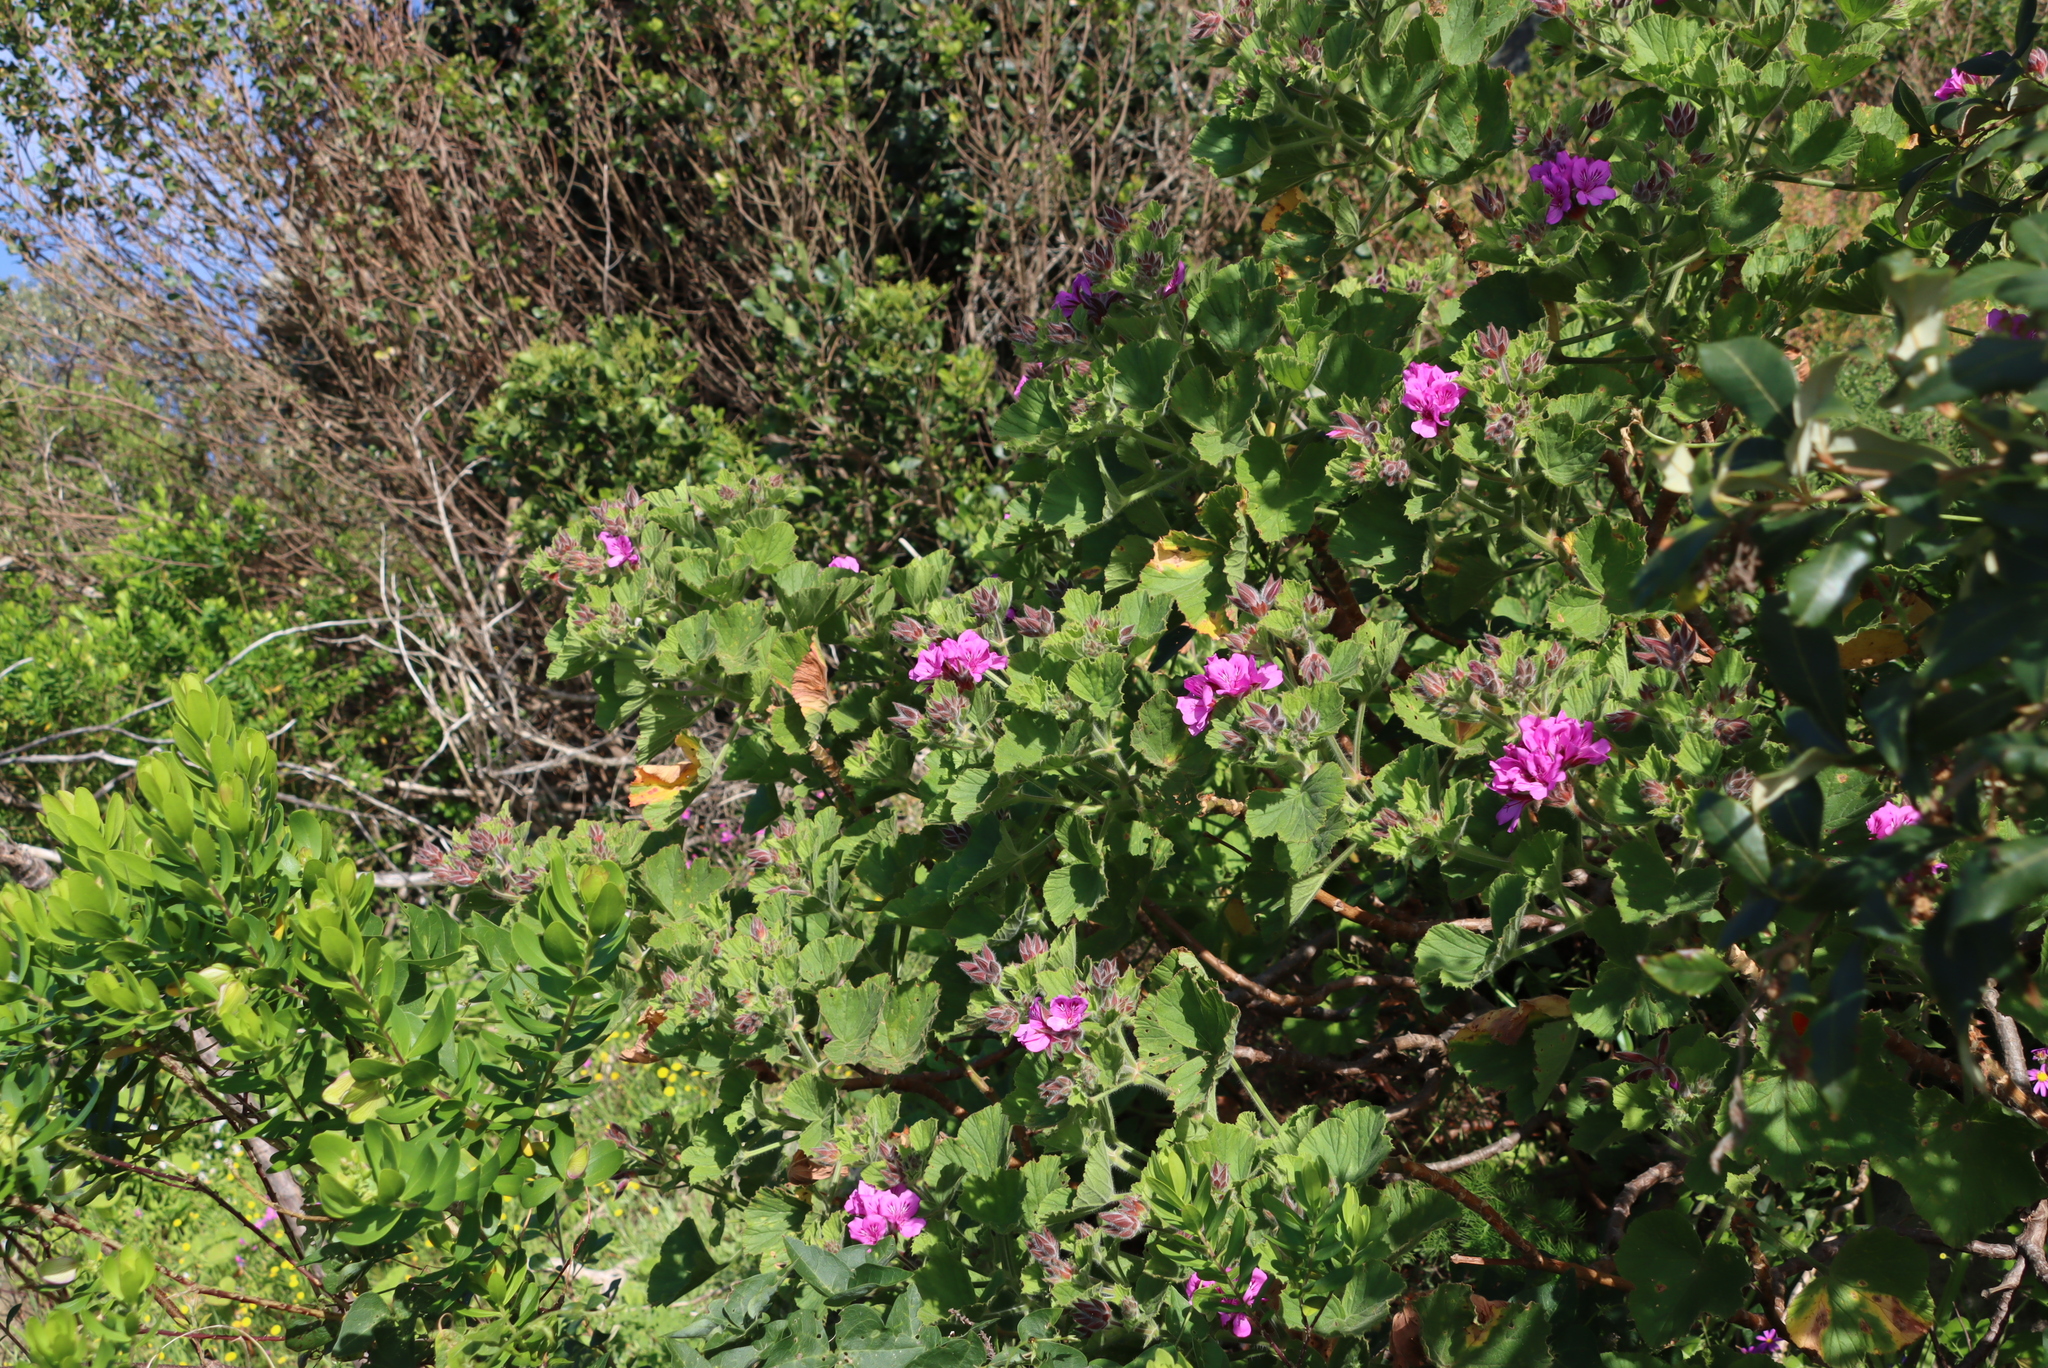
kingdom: Plantae
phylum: Tracheophyta
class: Magnoliopsida
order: Geraniales
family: Geraniaceae
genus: Pelargonium
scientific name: Pelargonium cucullatum
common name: Tree pelargonium
